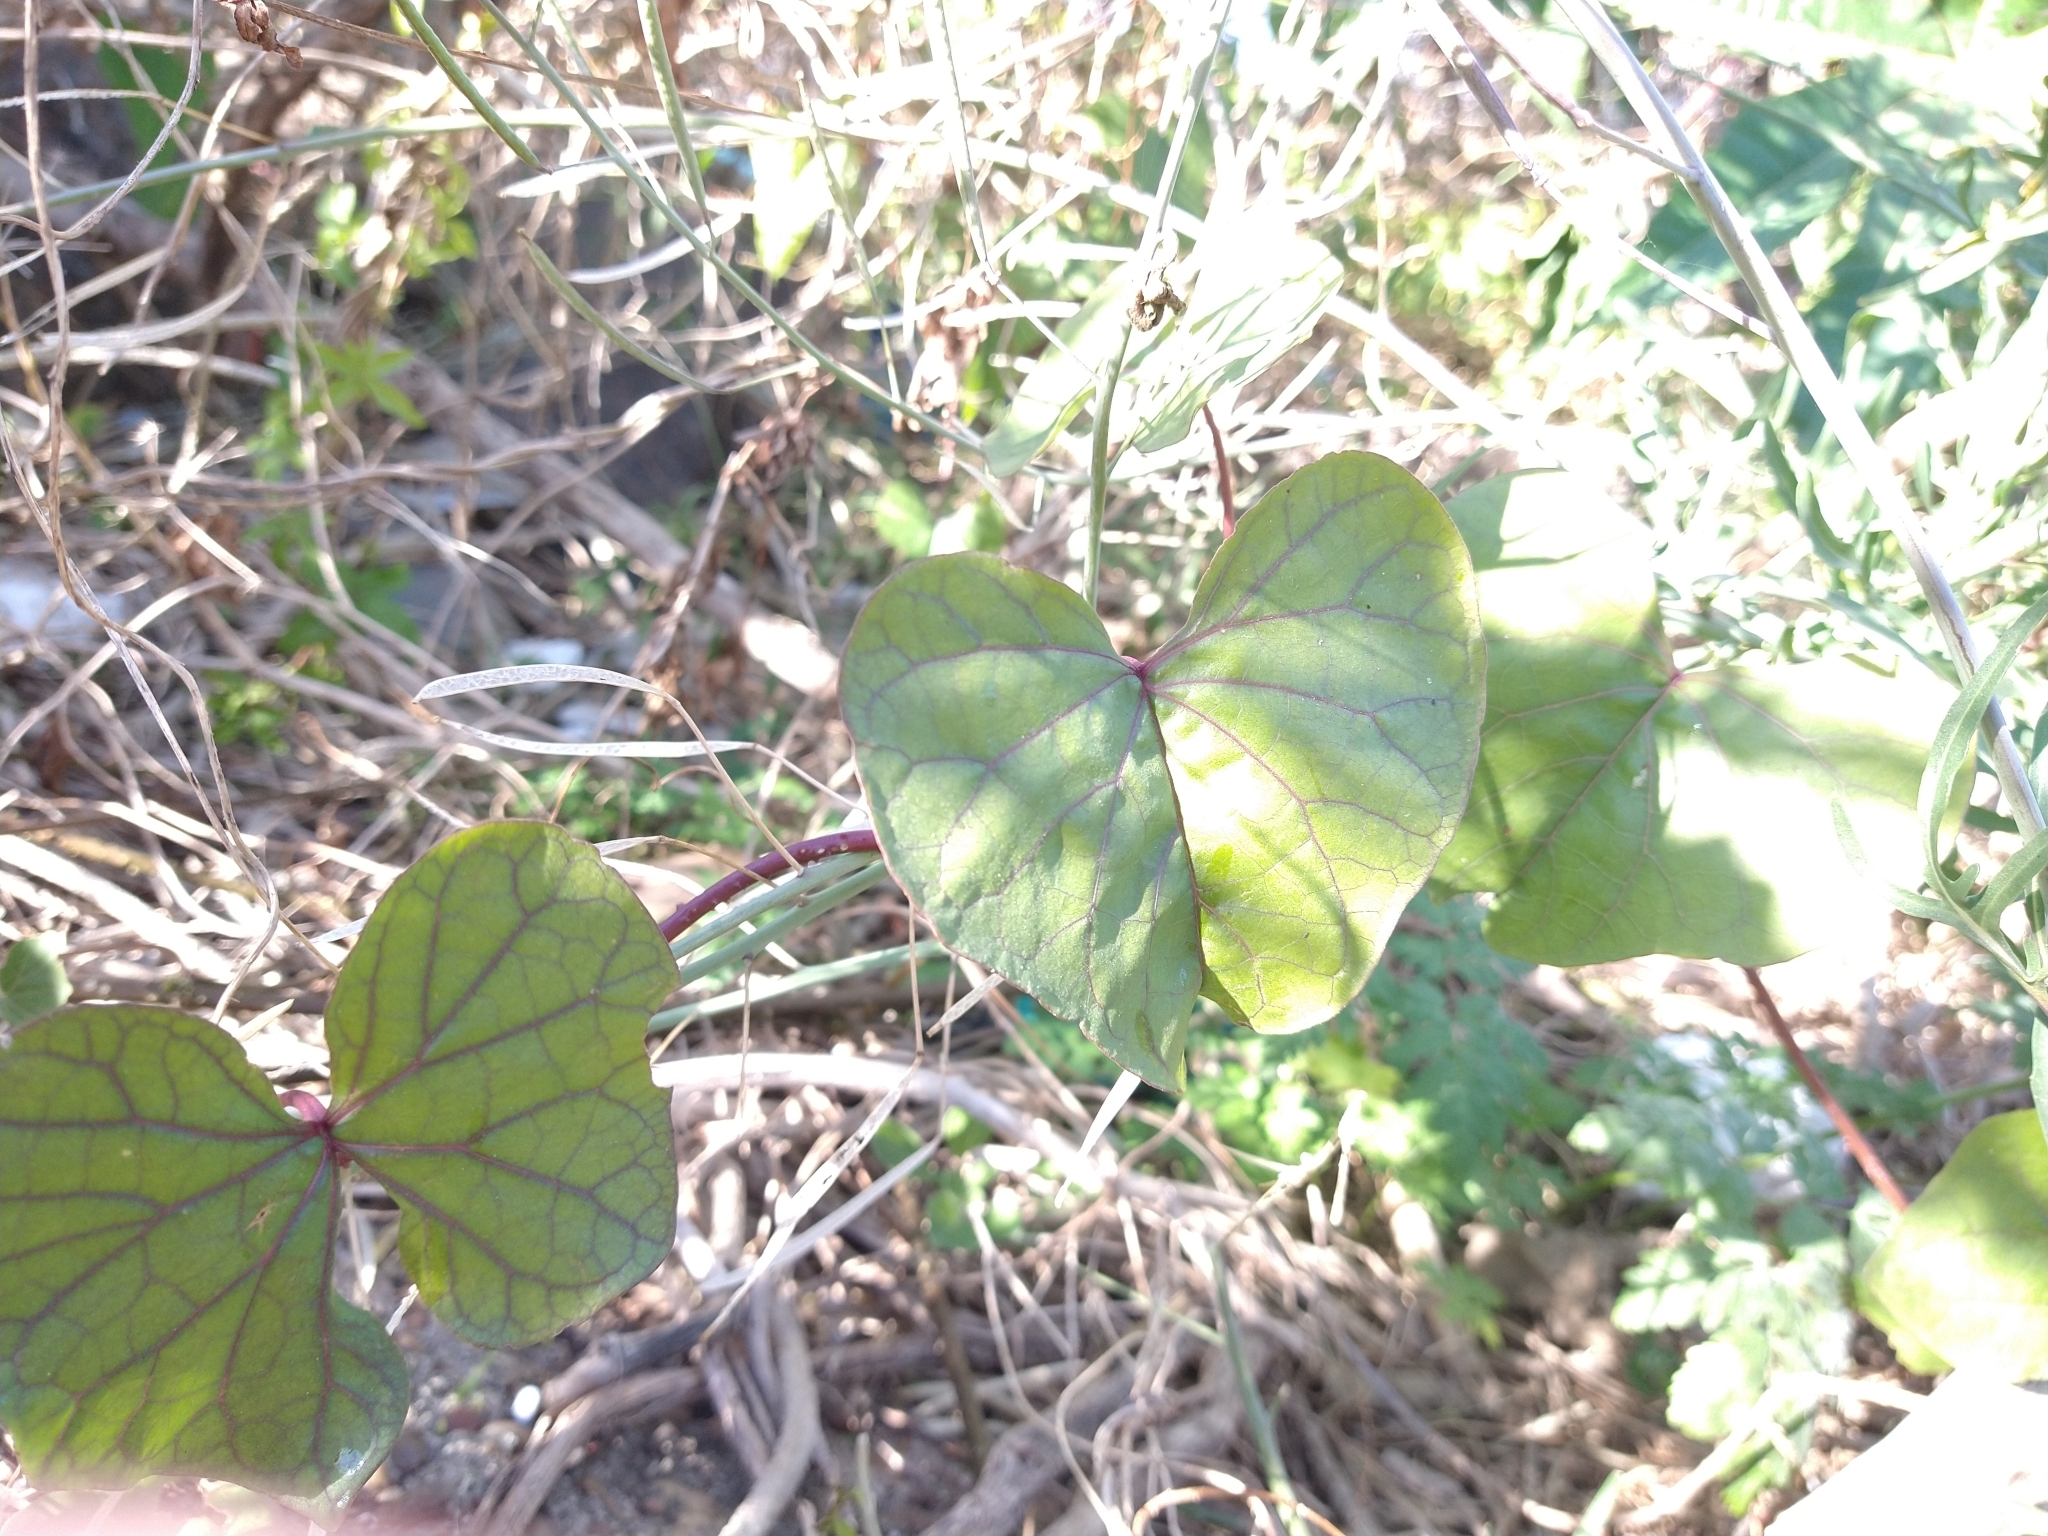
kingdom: Plantae
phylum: Tracheophyta
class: Magnoliopsida
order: Solanales
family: Convolvulaceae
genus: Ipomoea
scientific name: Ipomoea alba
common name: Moonflower
